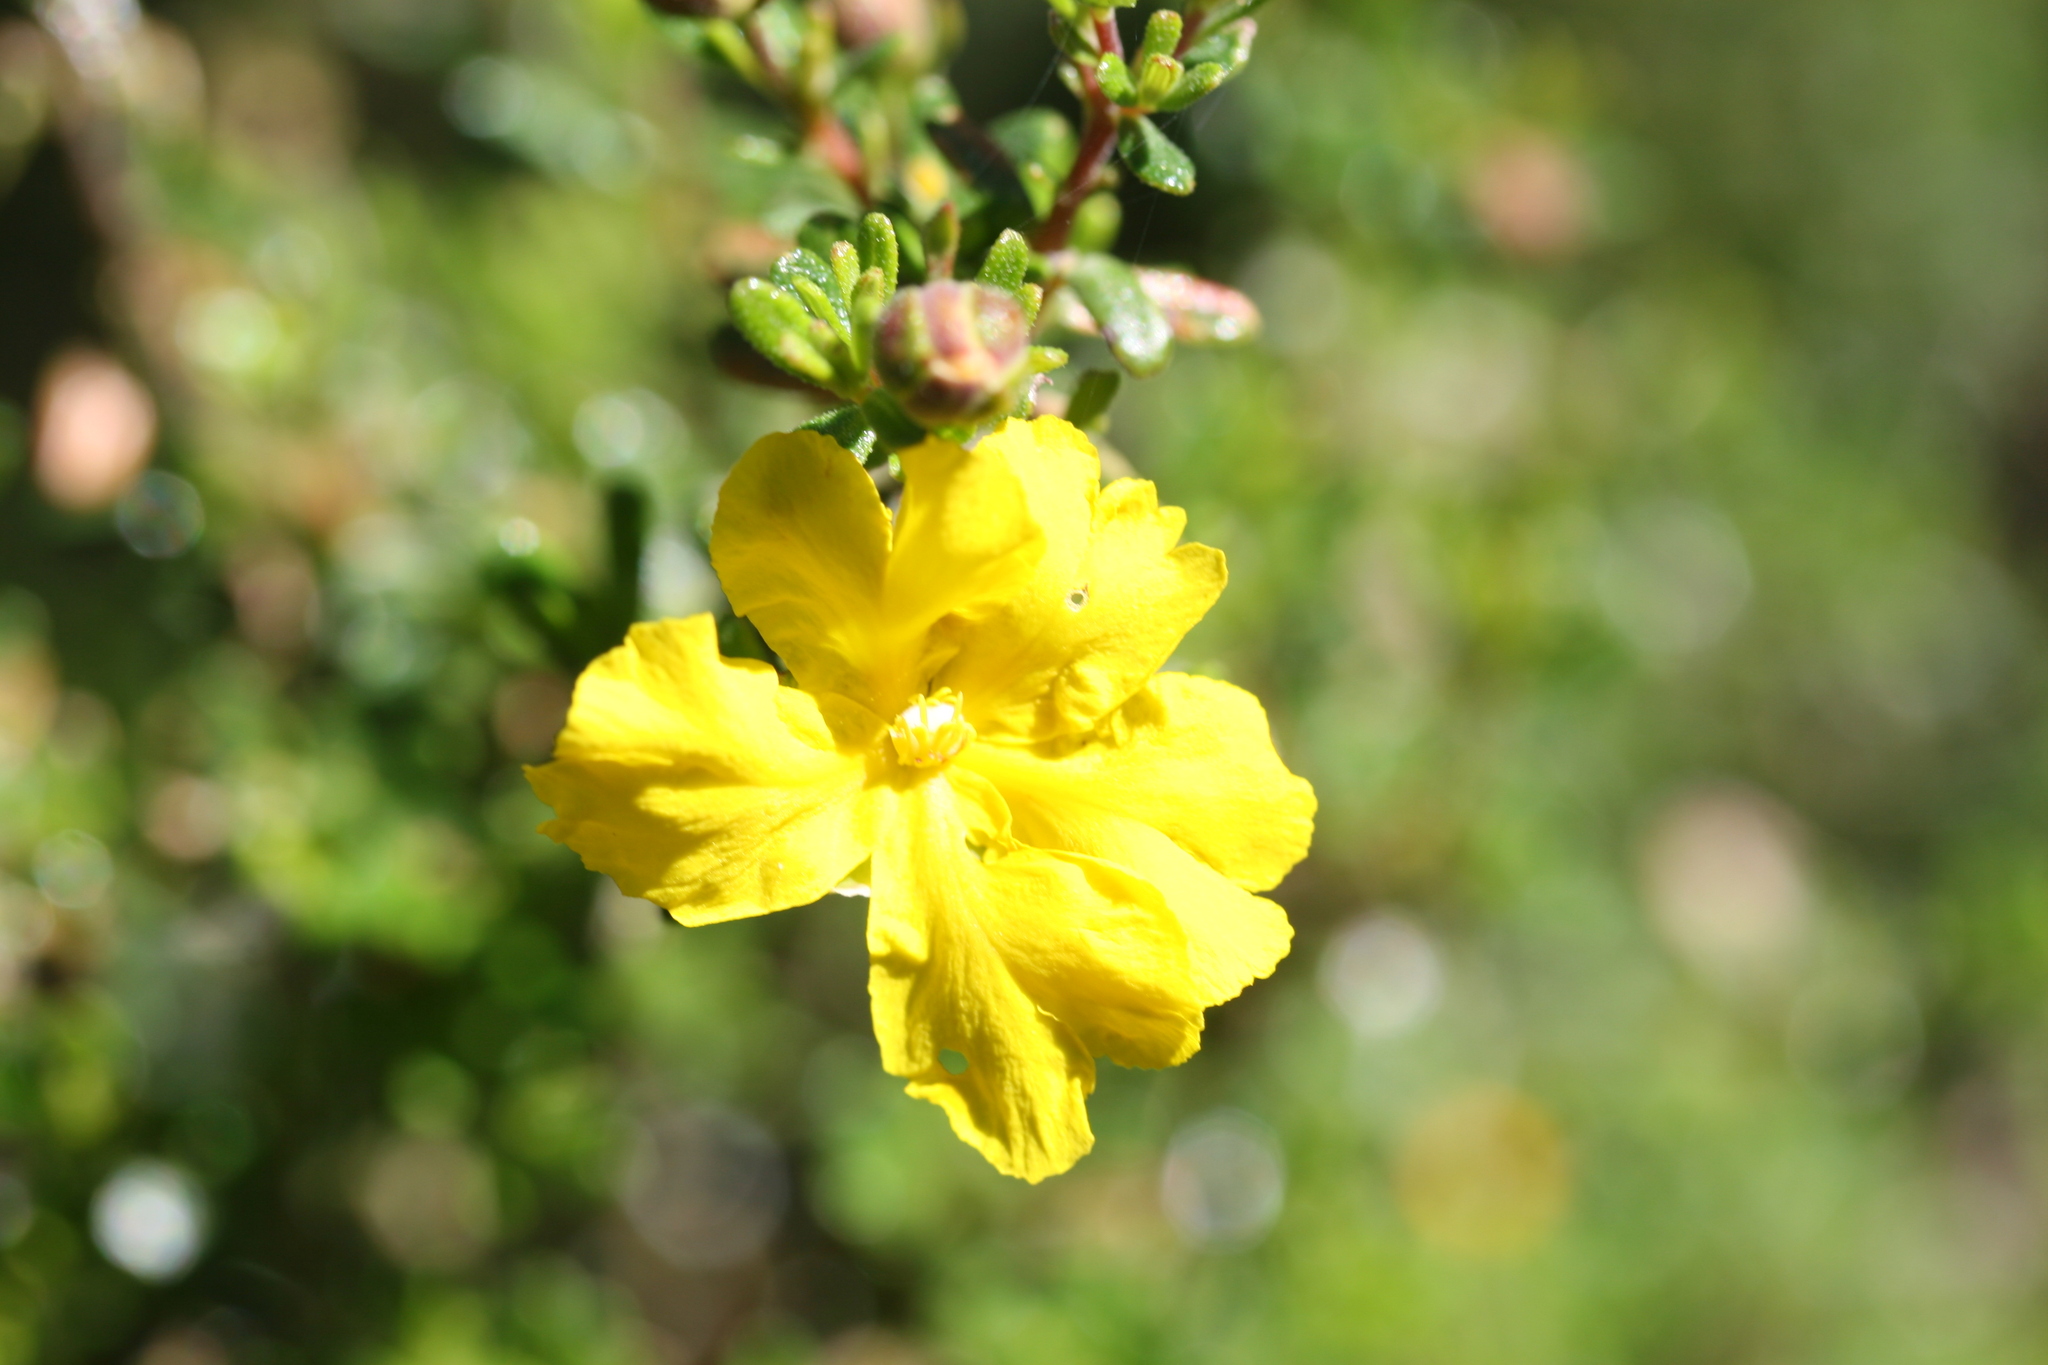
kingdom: Plantae
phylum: Tracheophyta
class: Magnoliopsida
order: Dilleniales
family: Dilleniaceae
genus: Hibbertia
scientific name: Hibbertia hypericoides
